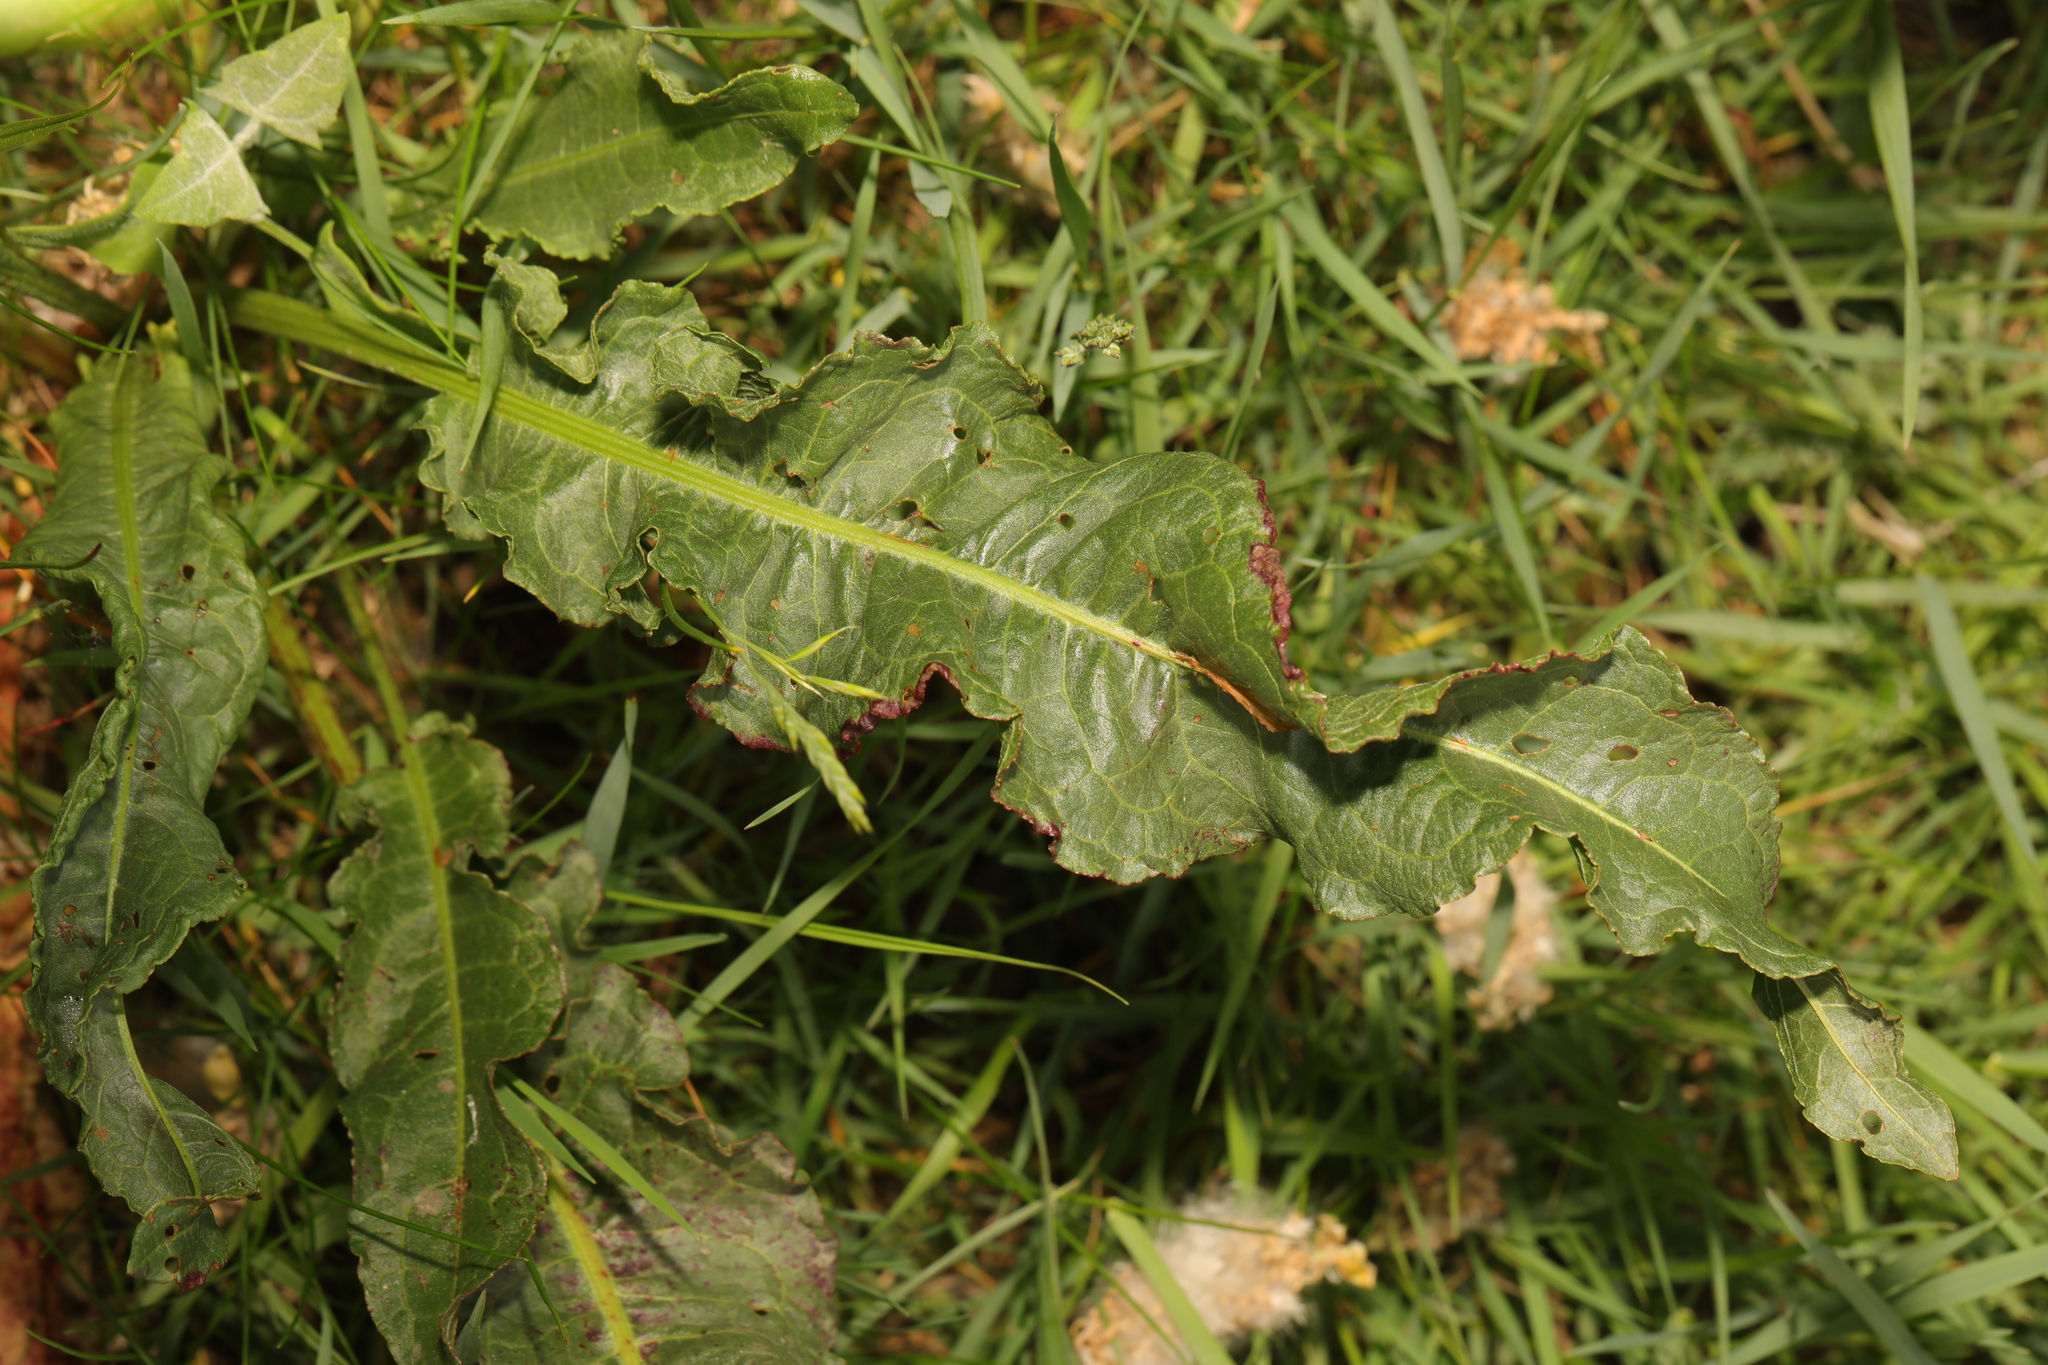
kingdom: Plantae
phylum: Tracheophyta
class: Magnoliopsida
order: Caryophyllales
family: Polygonaceae
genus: Rumex
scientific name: Rumex crispus
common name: Curled dock
